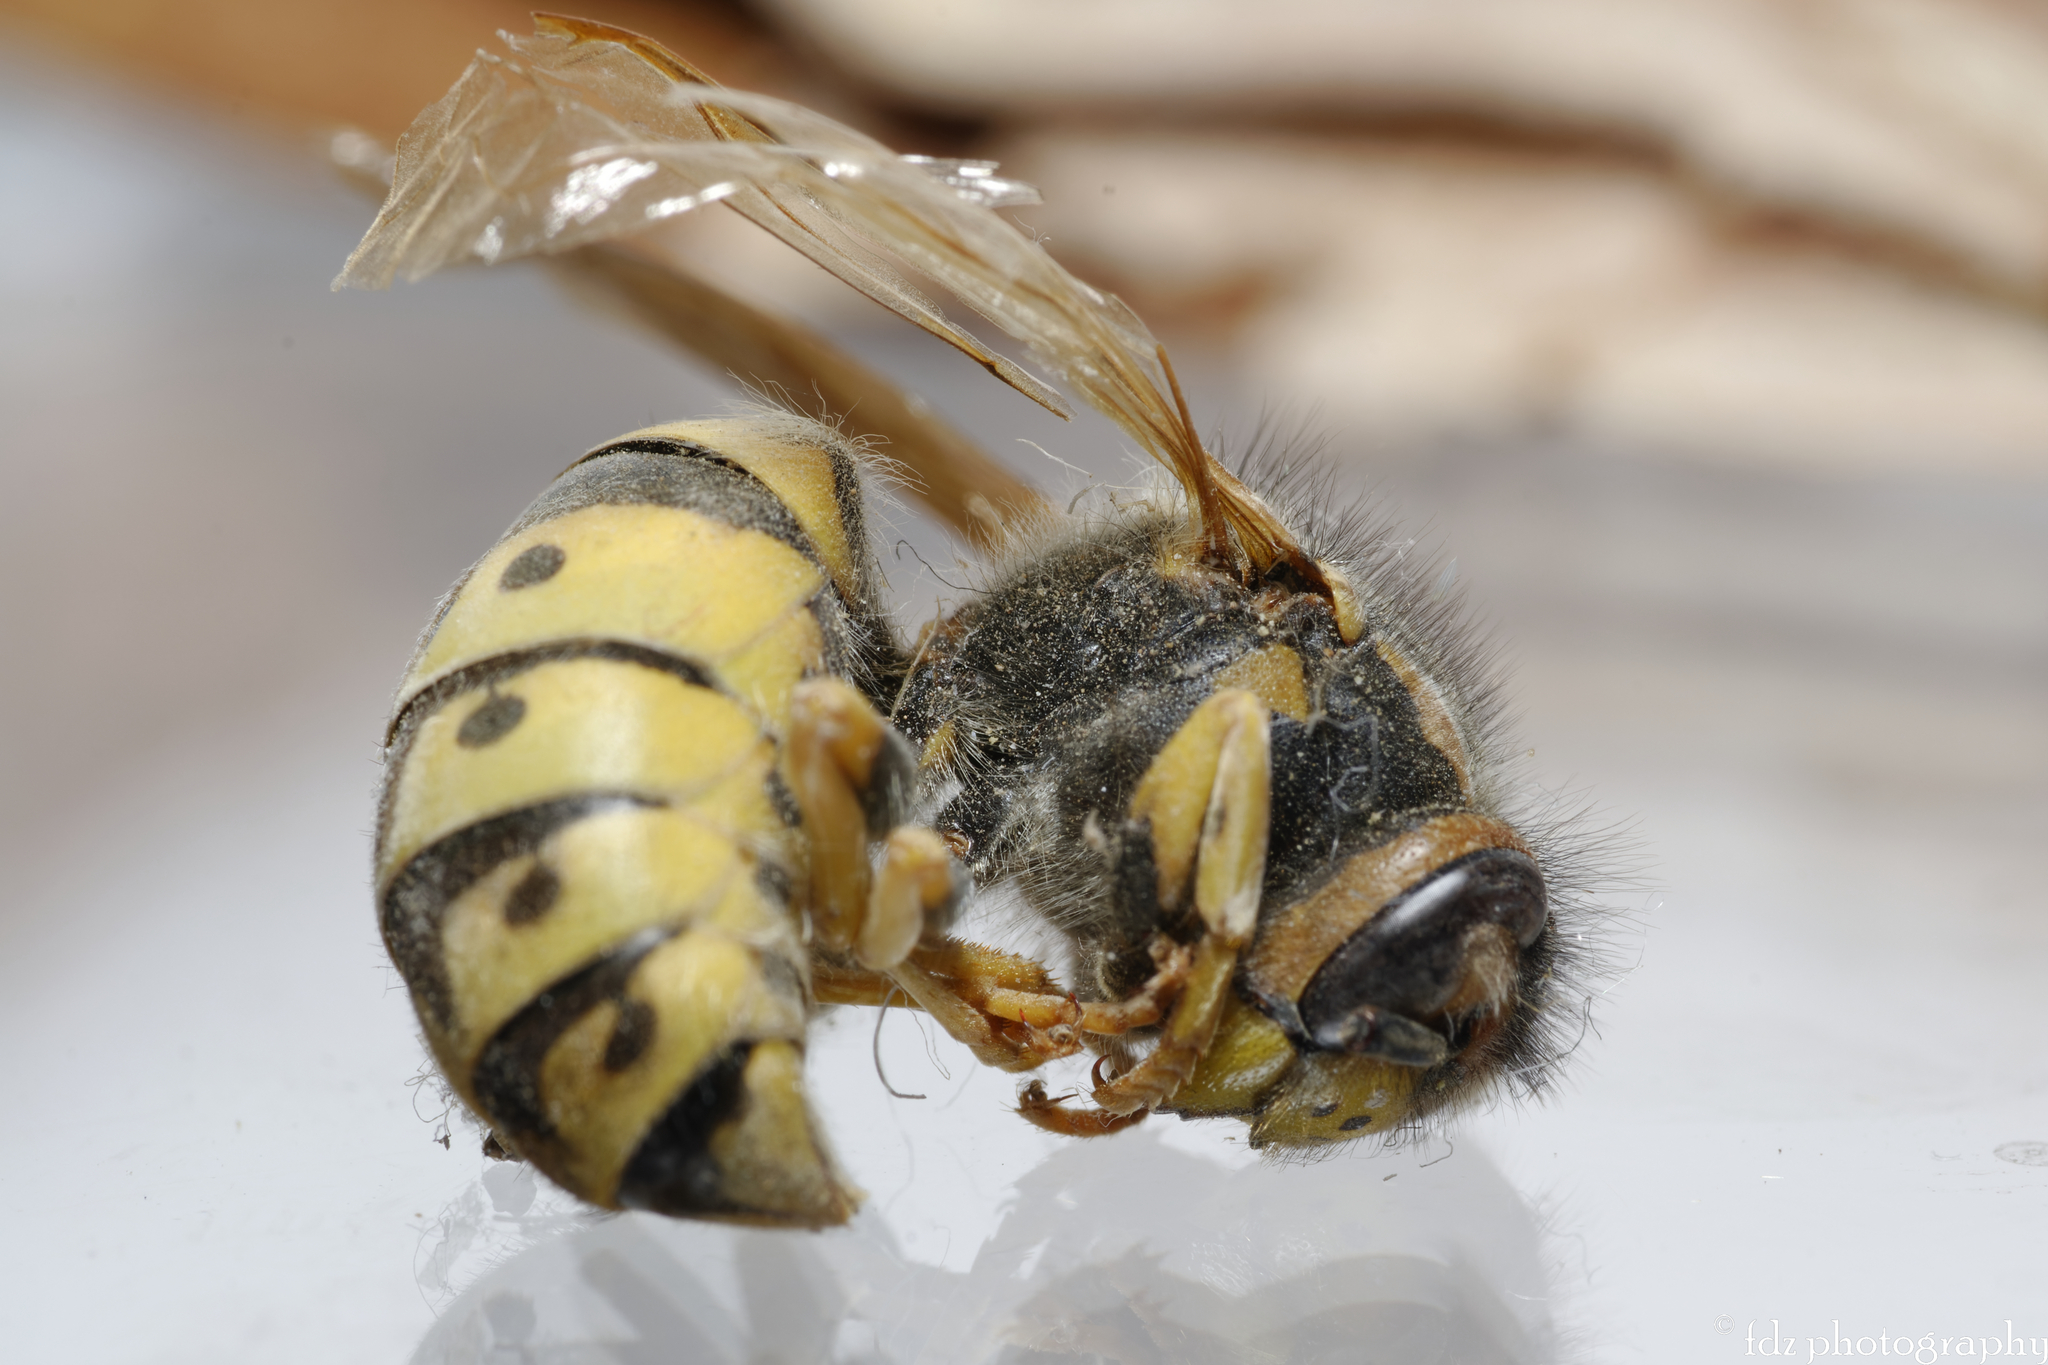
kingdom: Animalia
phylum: Arthropoda
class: Insecta
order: Hymenoptera
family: Vespidae
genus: Vespula
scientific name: Vespula germanica
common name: German wasp
